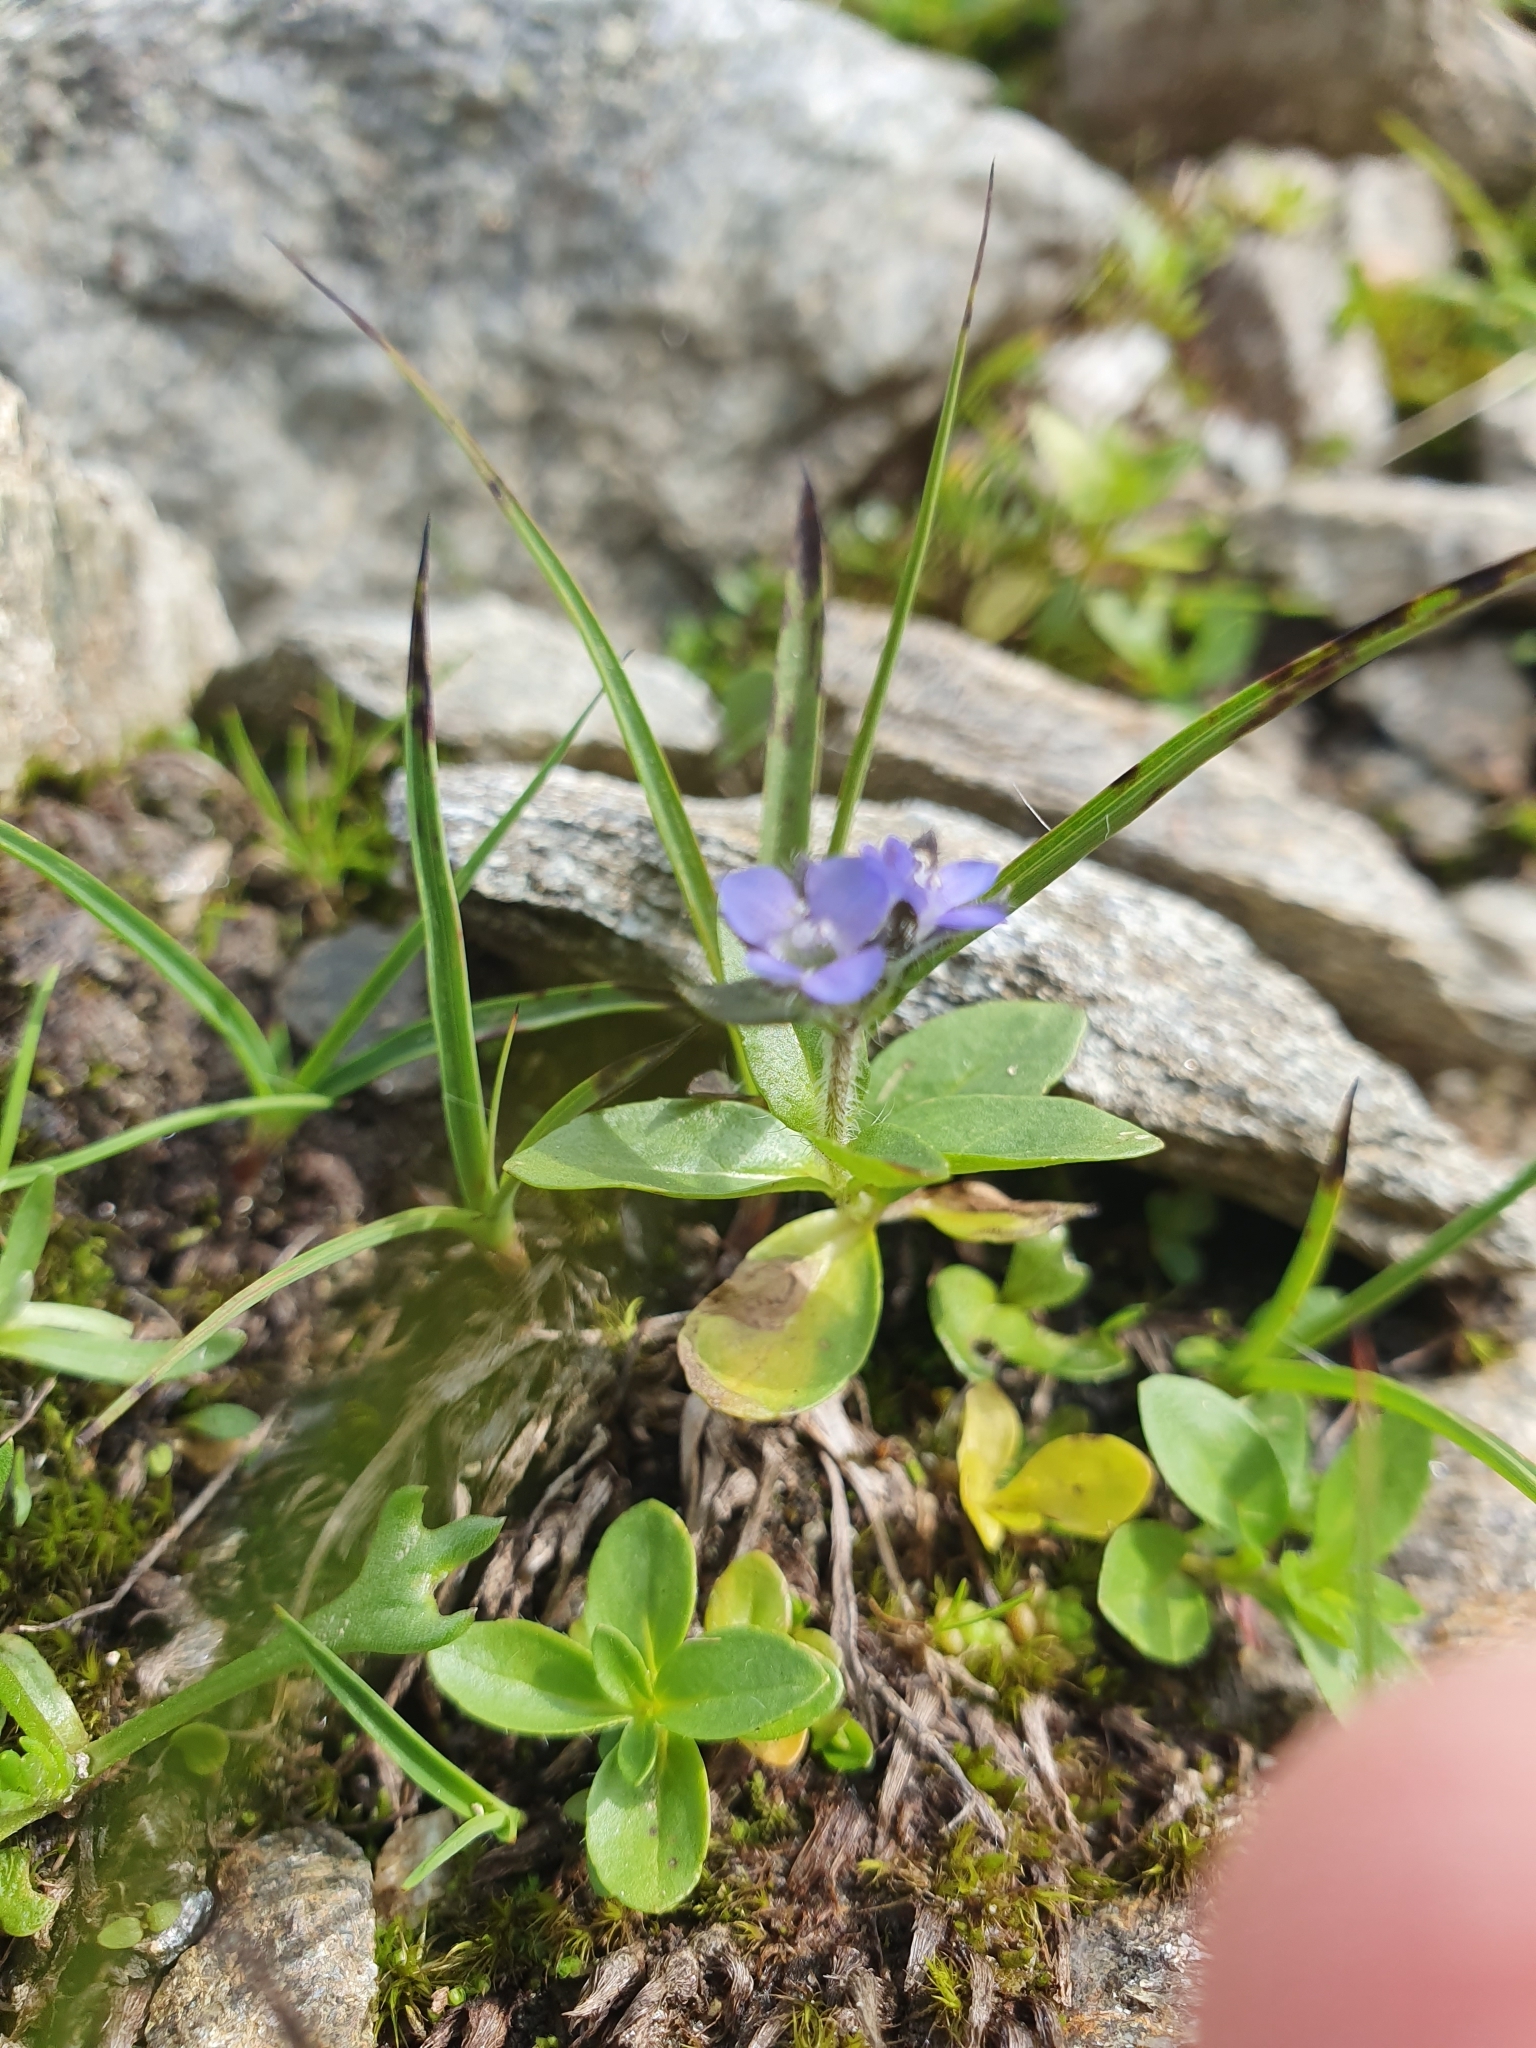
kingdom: Plantae
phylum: Tracheophyta
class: Magnoliopsida
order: Lamiales
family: Plantaginaceae
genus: Veronica
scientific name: Veronica alpina
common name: Alpine speedwell
